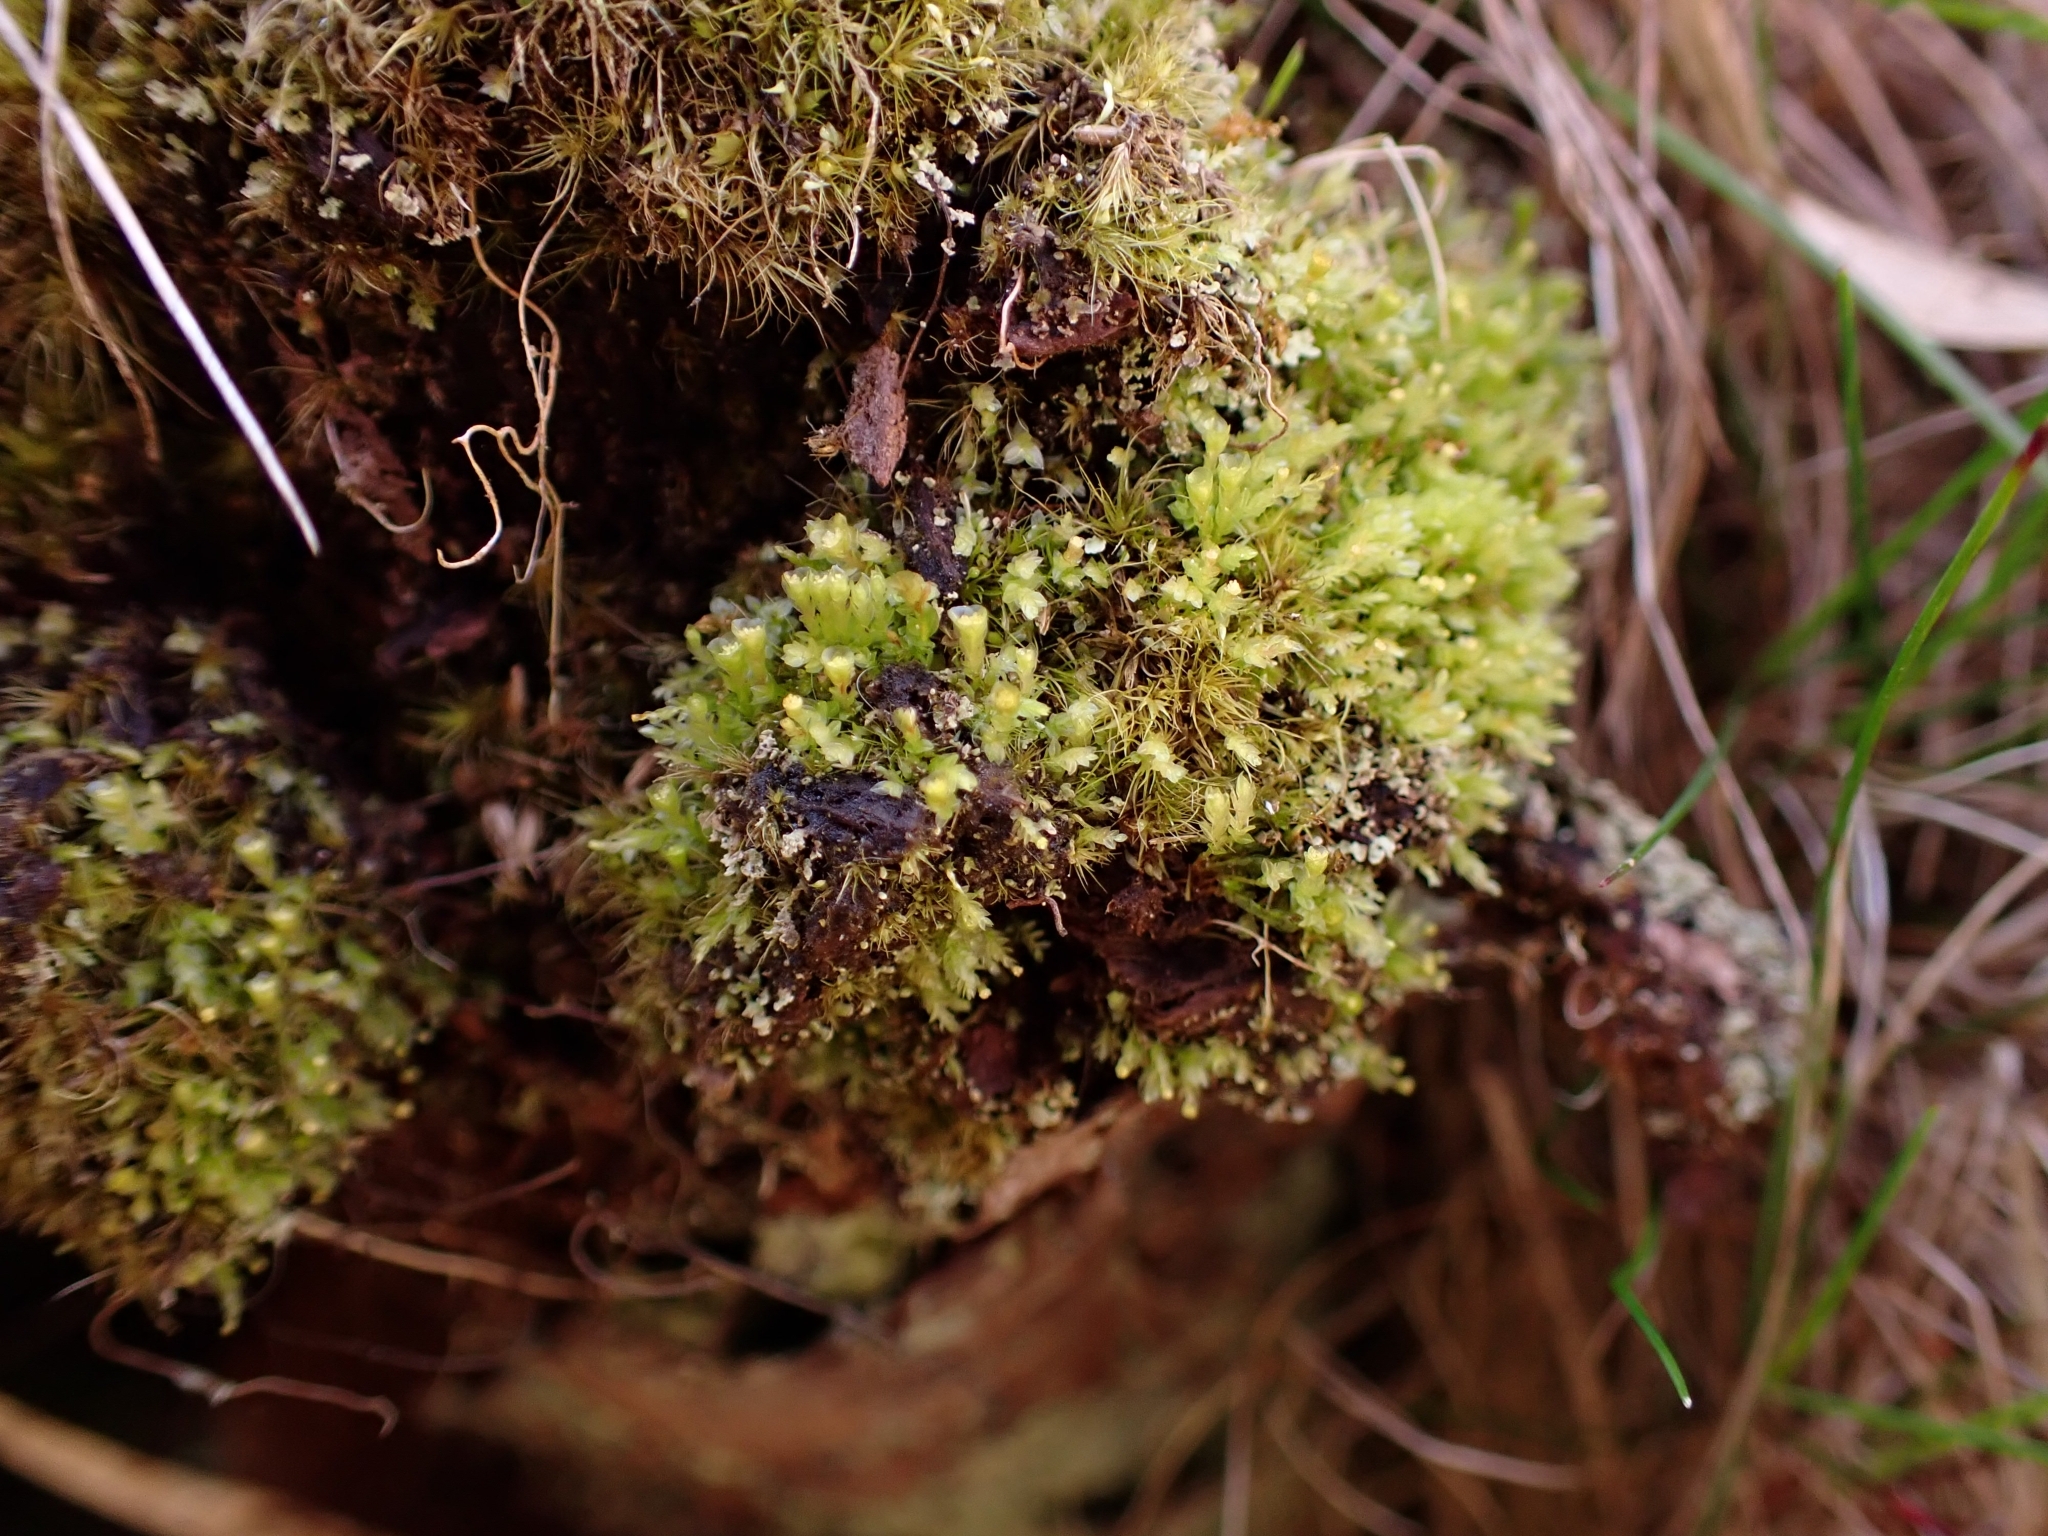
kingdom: Plantae
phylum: Bryophyta
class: Polytrichopsida
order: Tetraphidales
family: Tetraphidaceae
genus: Tetraphis
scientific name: Tetraphis pellucida
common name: Common four-toothed moss
